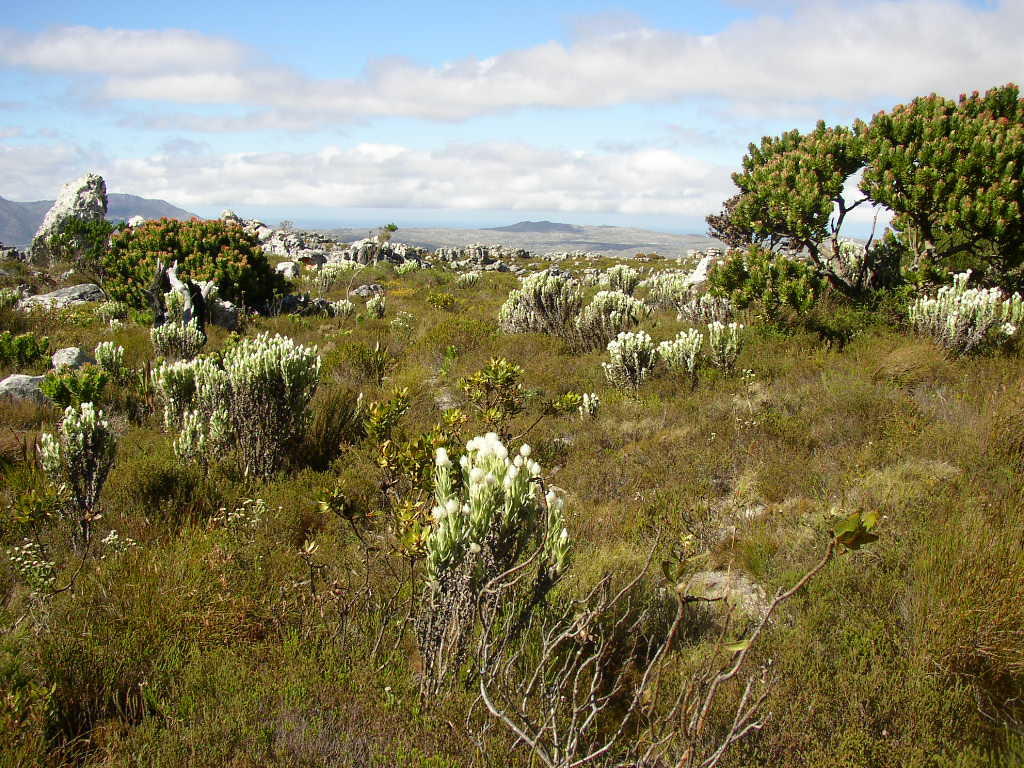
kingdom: Plantae
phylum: Tracheophyta
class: Magnoliopsida
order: Asterales
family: Asteraceae
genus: Syncarpha
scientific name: Syncarpha vestita
